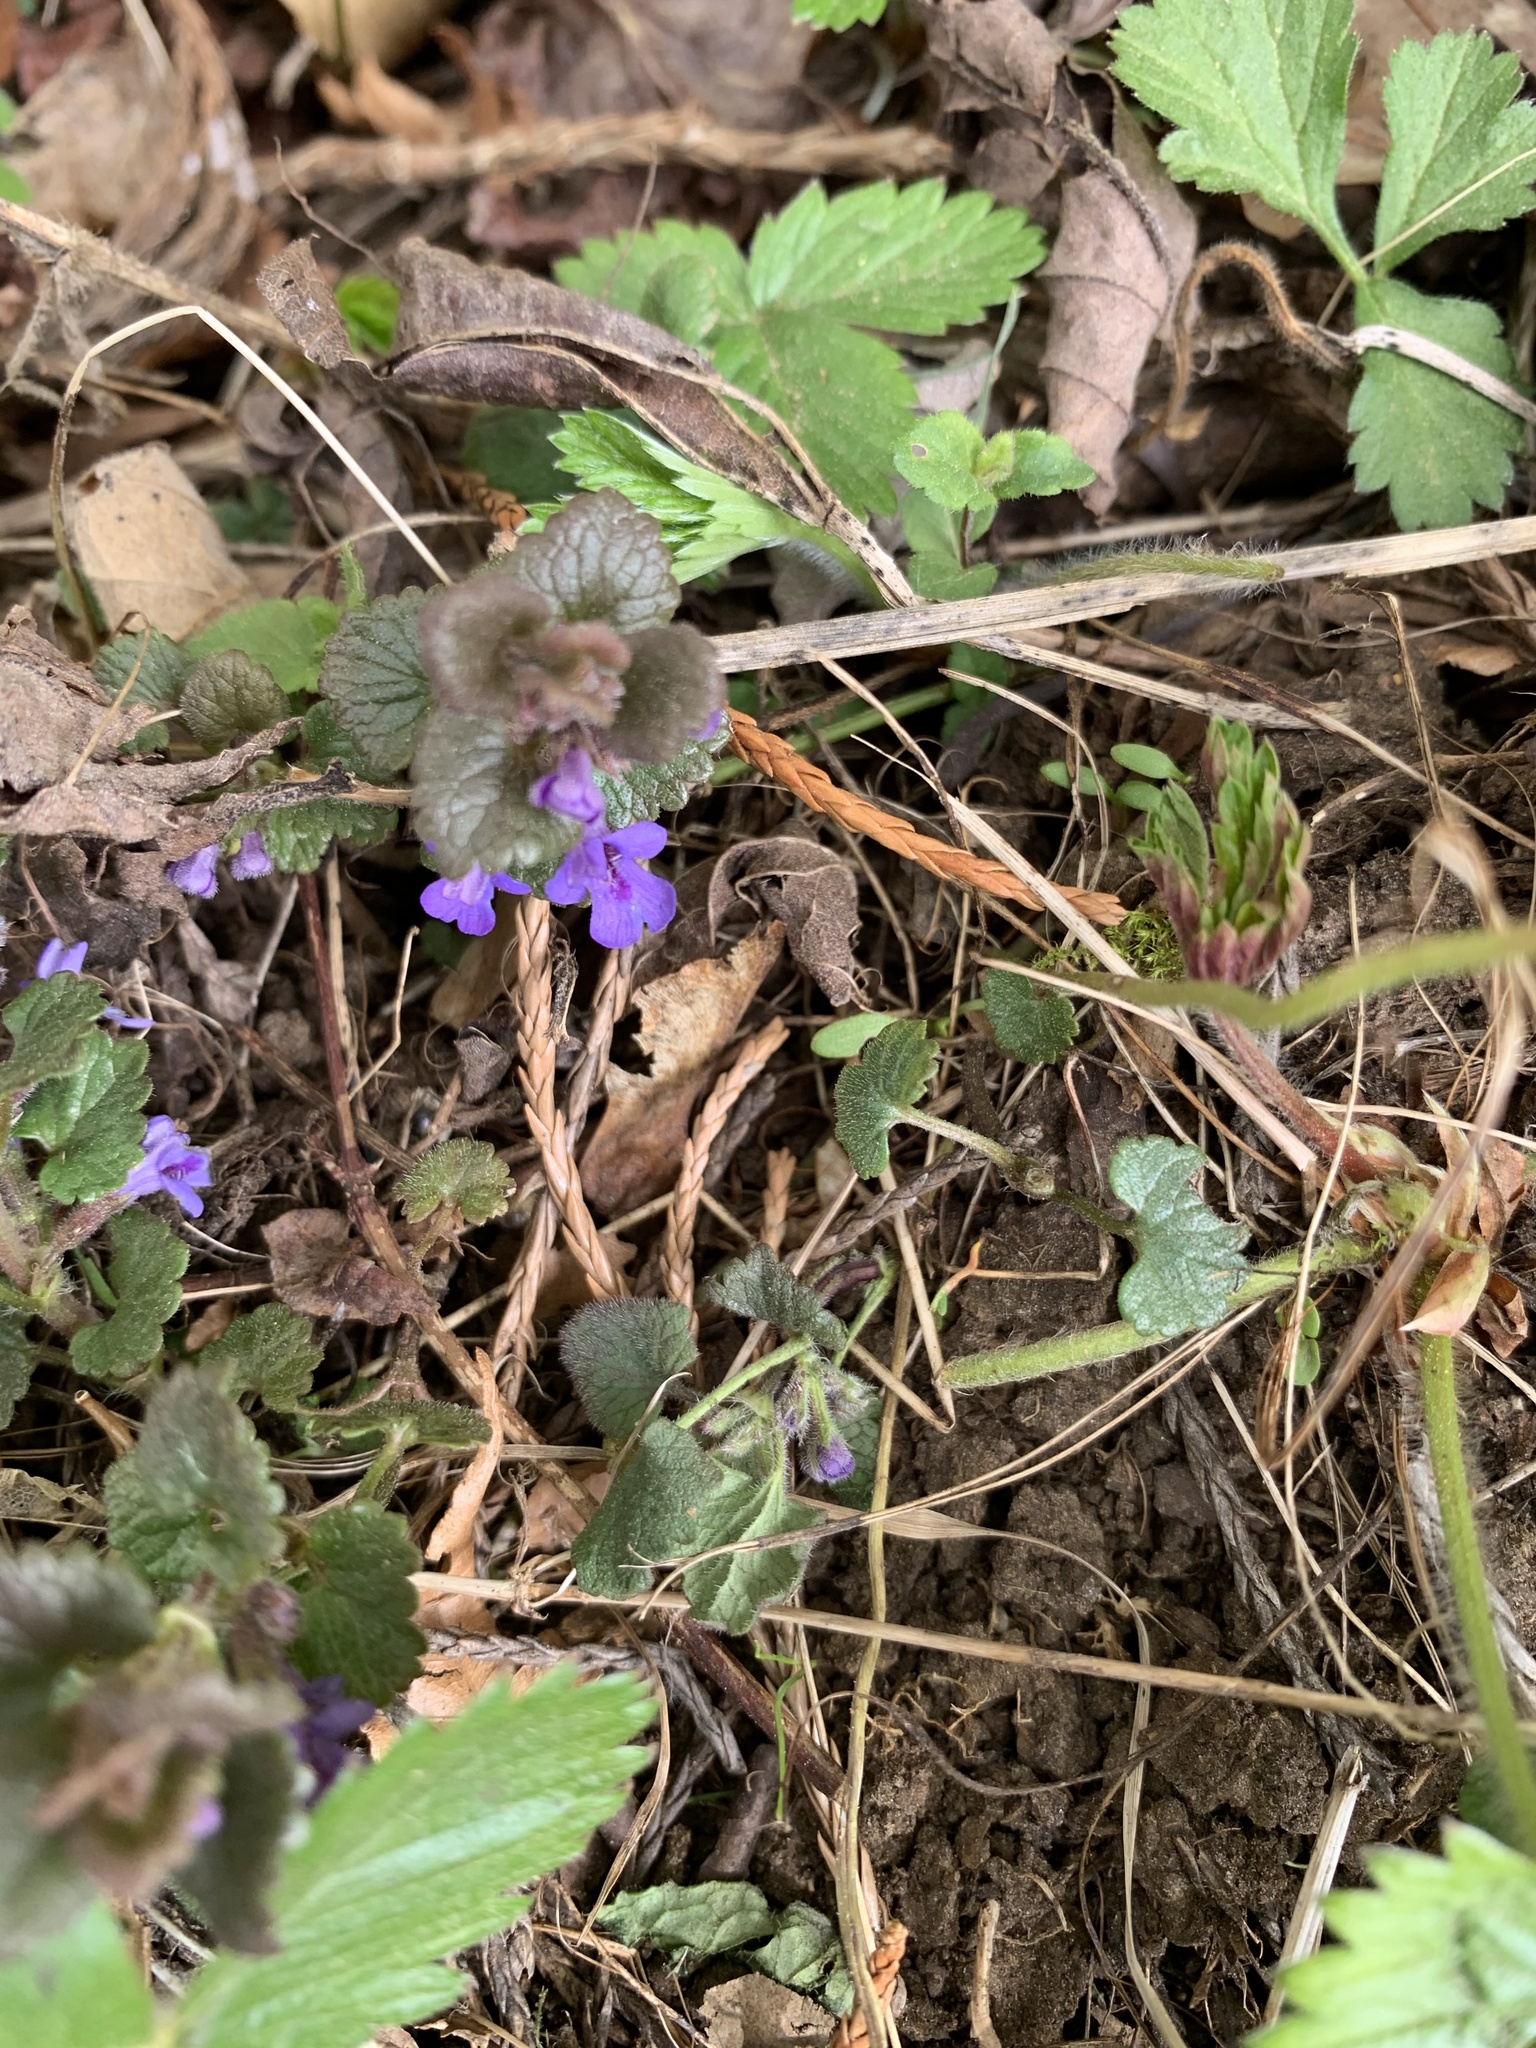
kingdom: Plantae
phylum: Tracheophyta
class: Magnoliopsida
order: Lamiales
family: Lamiaceae
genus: Glechoma
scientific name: Glechoma hederacea
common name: Ground ivy
